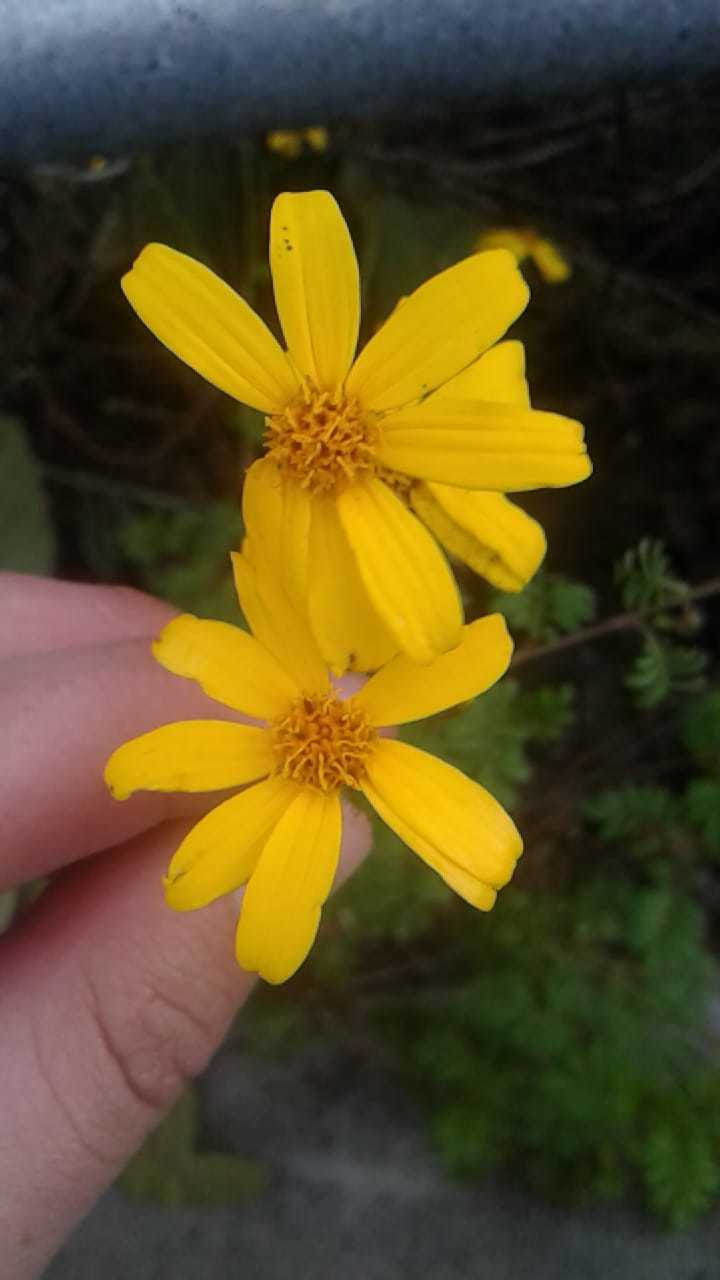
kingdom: Plantae
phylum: Tracheophyta
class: Magnoliopsida
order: Asterales
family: Asteraceae
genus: Tagetes
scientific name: Tagetes zypaquirensis
